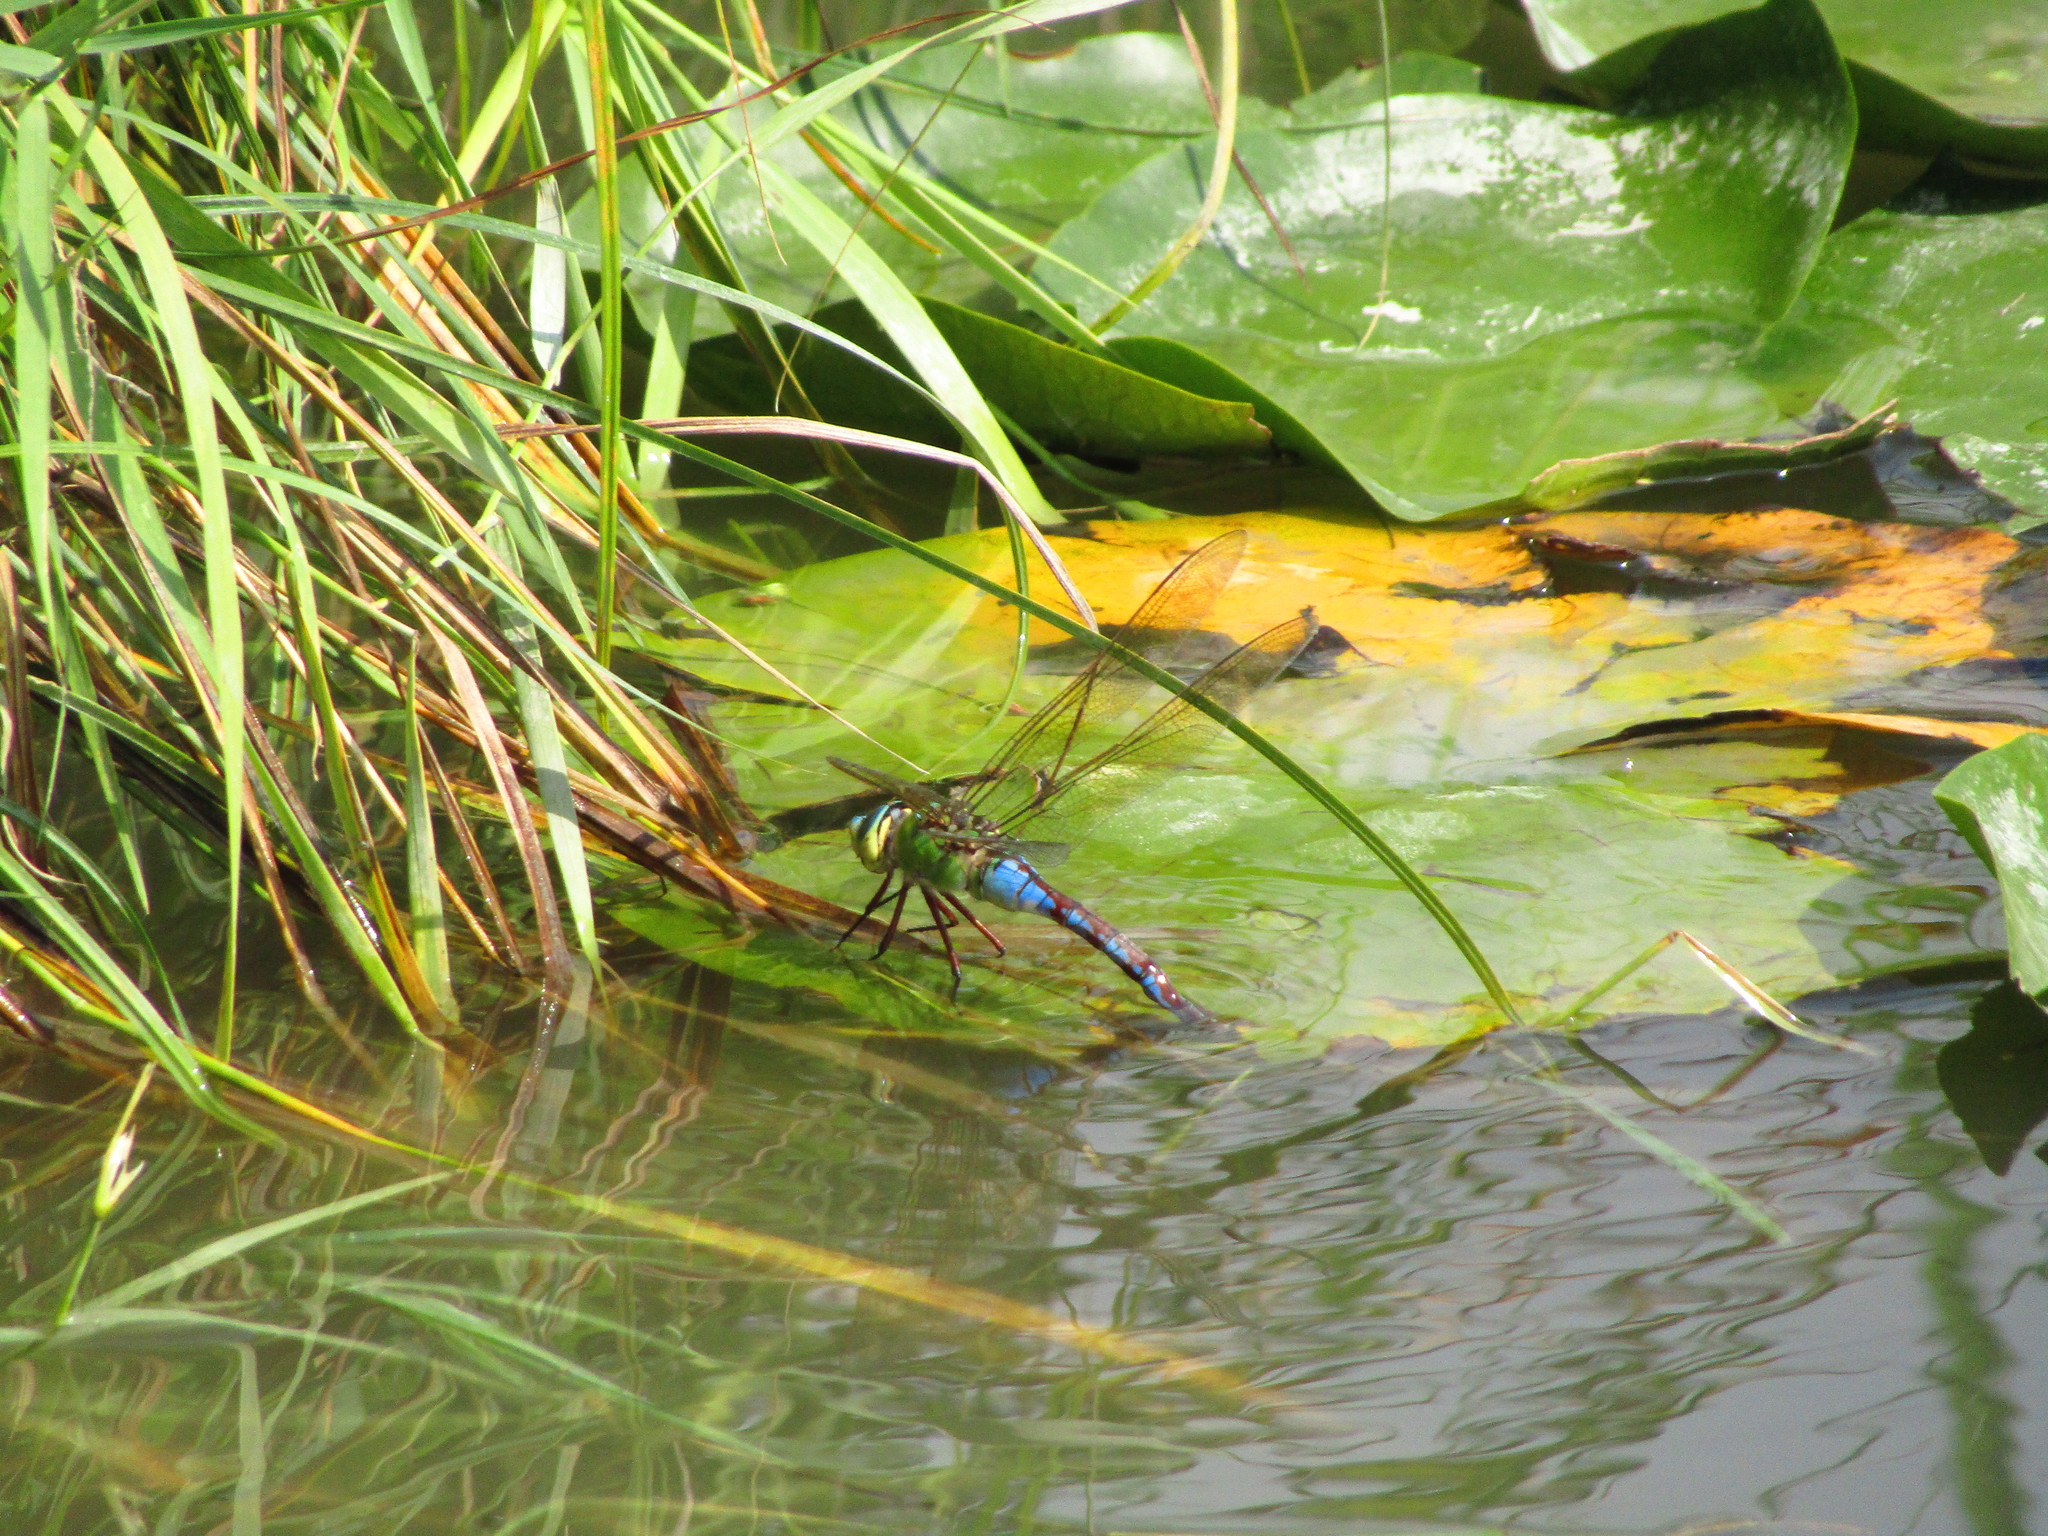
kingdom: Animalia
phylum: Arthropoda
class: Insecta
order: Odonata
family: Aeshnidae
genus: Anax
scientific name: Anax imperator
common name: Emperor dragonfly
